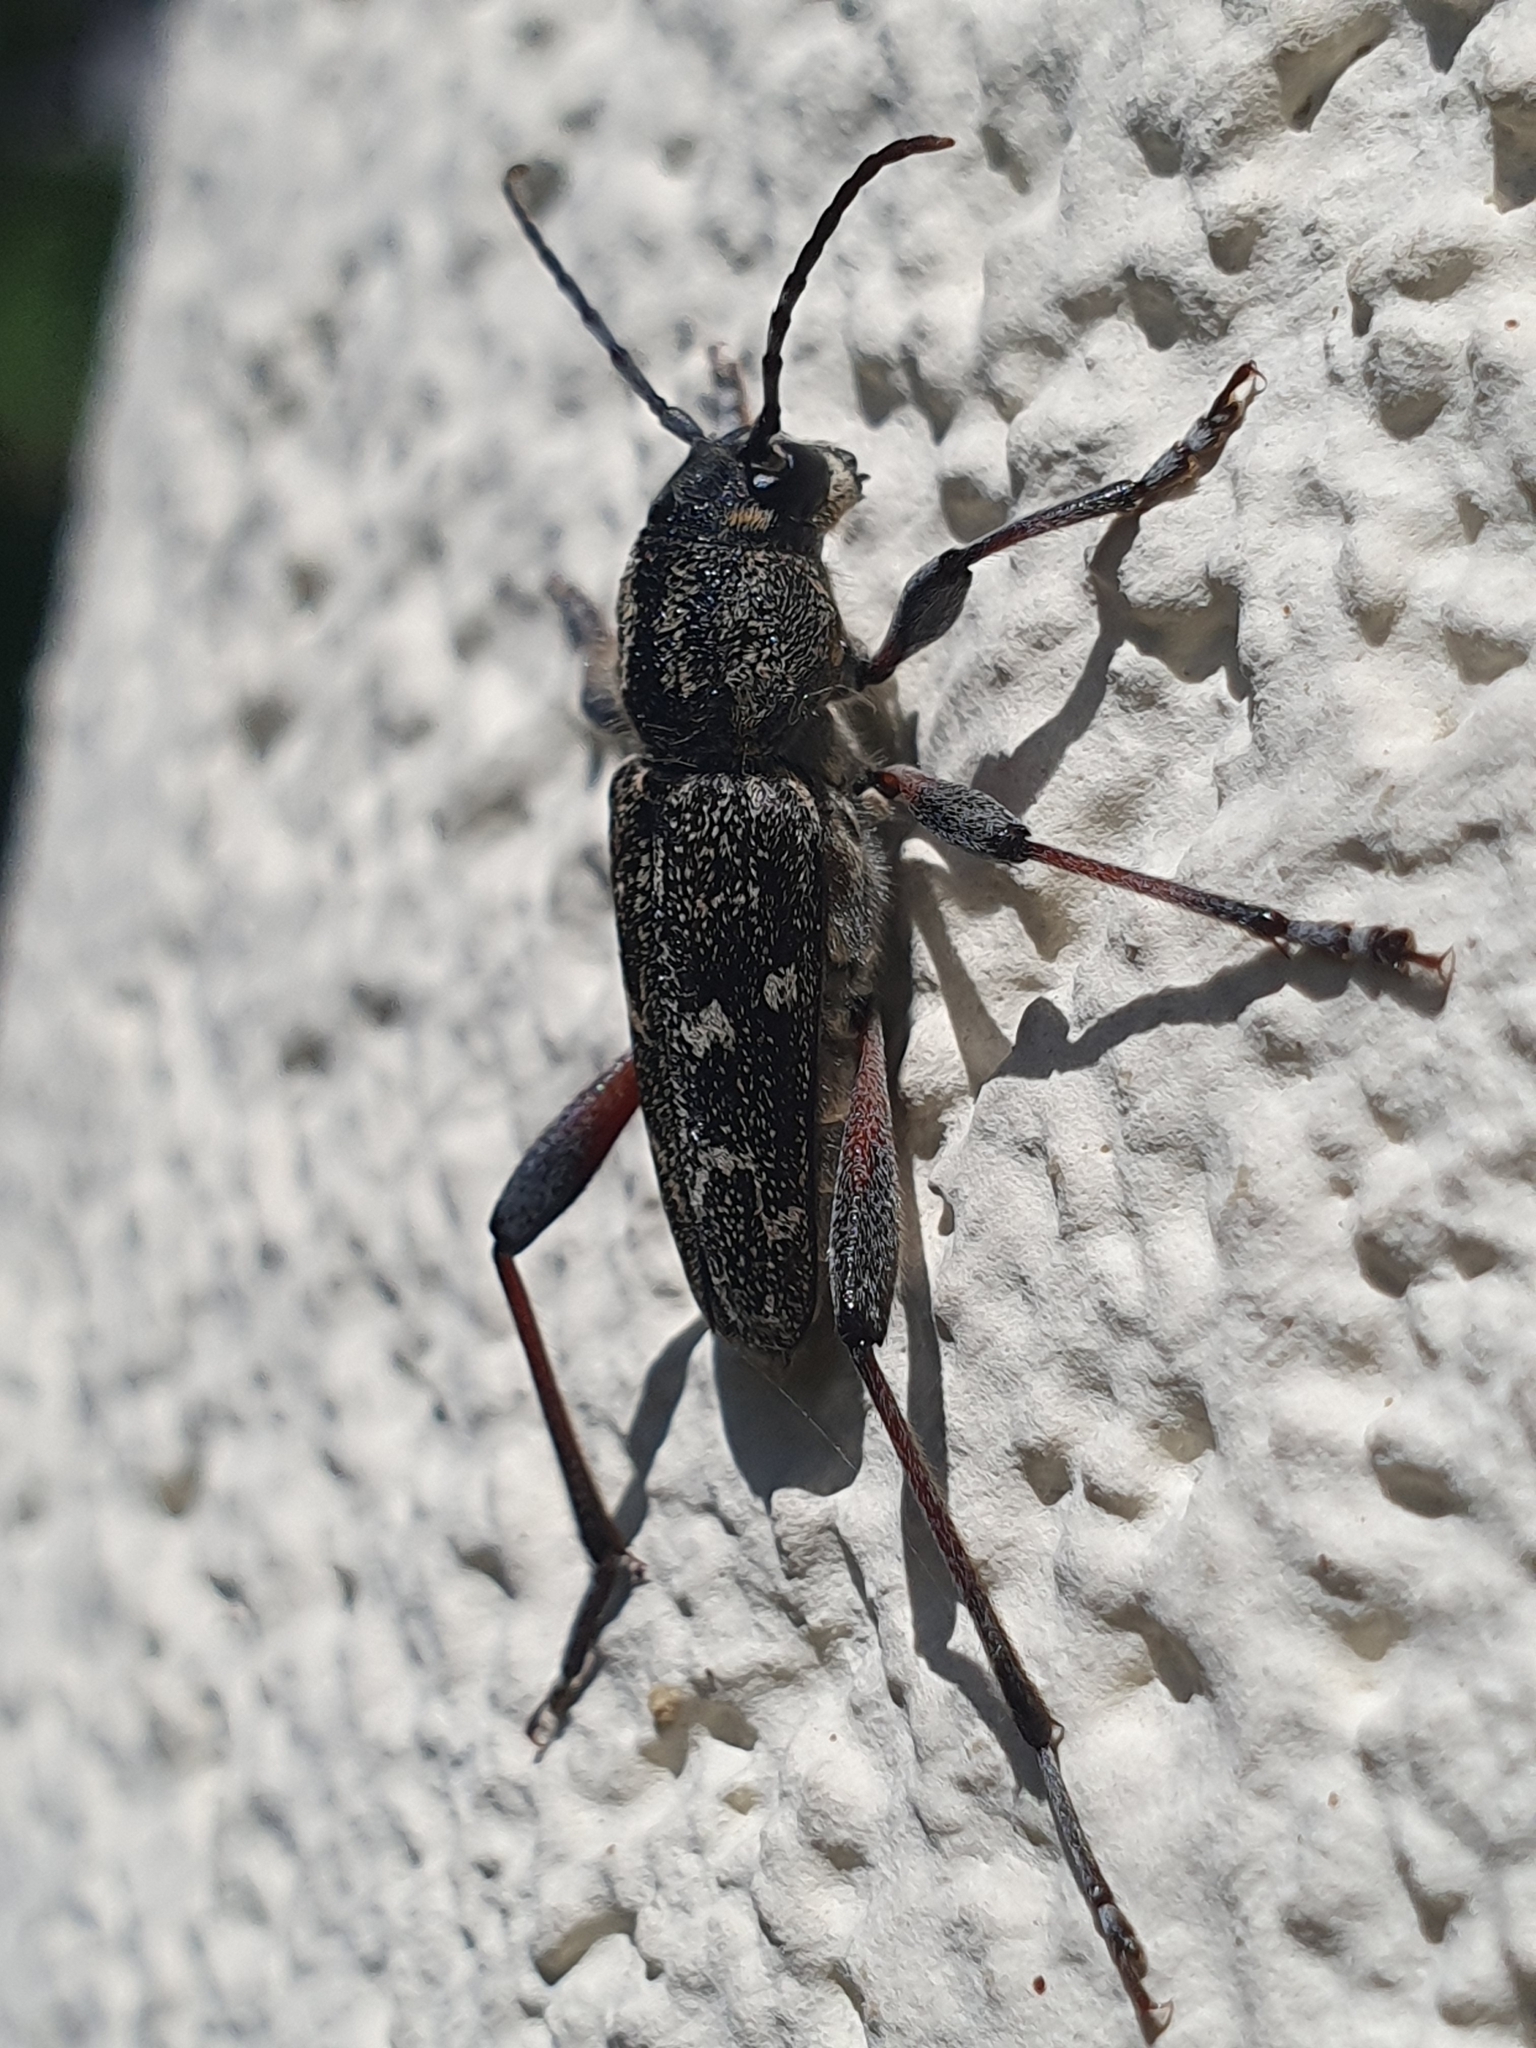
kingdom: Animalia
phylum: Arthropoda
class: Insecta
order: Coleoptera
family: Cerambycidae
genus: Xylotrechus
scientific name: Xylotrechus rusticus
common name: Grey tiger long-horned beetle
